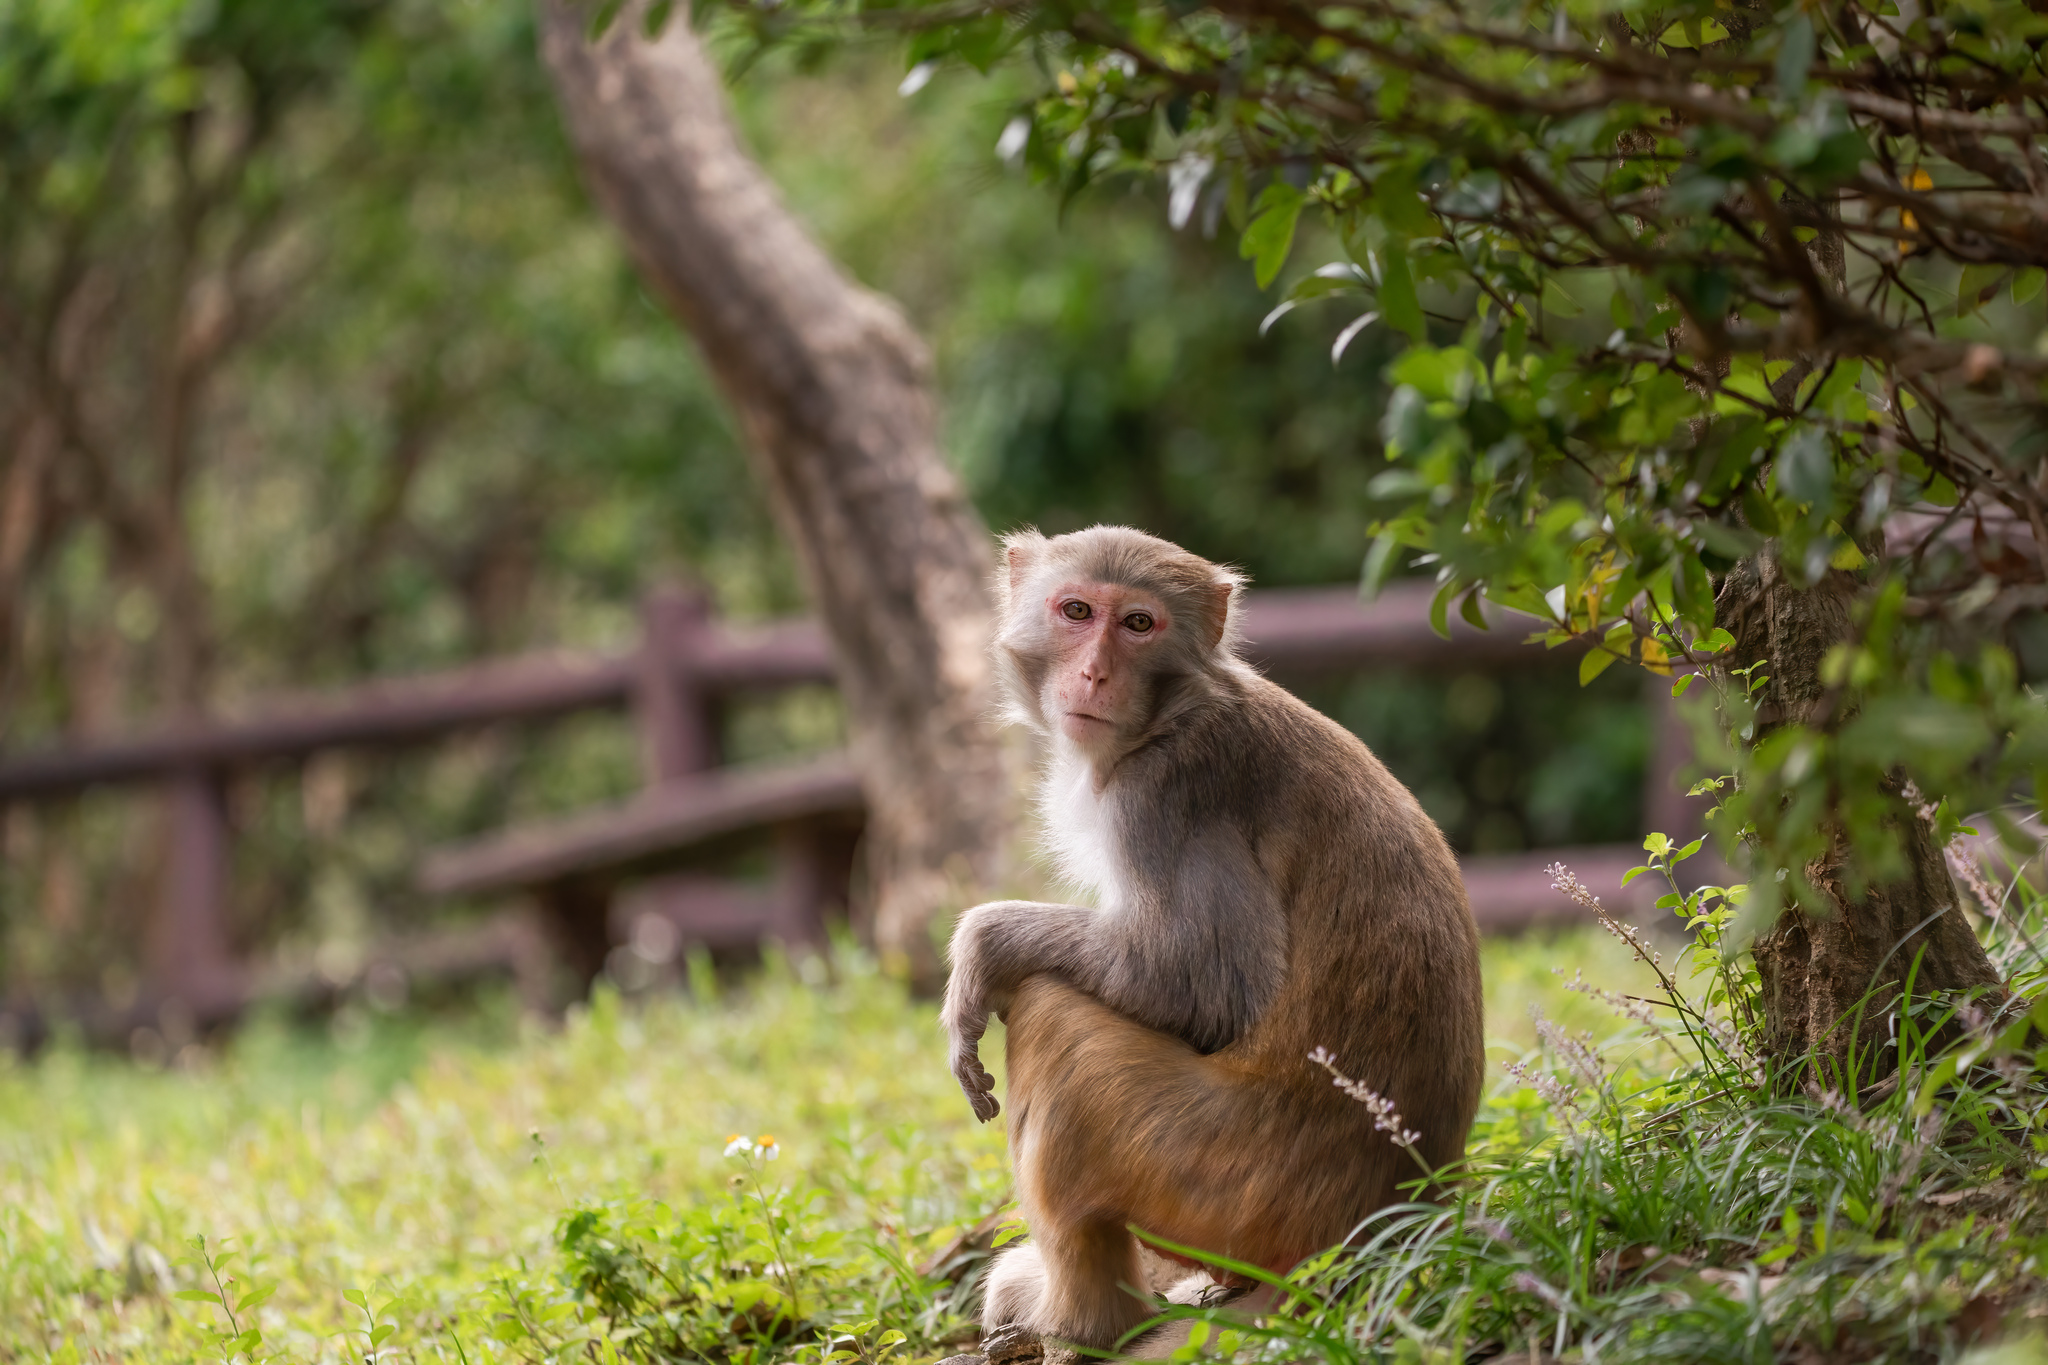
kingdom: Animalia
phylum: Chordata
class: Mammalia
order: Primates
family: Cercopithecidae
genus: Macaca
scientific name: Macaca mulatta
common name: Rhesus monkey
